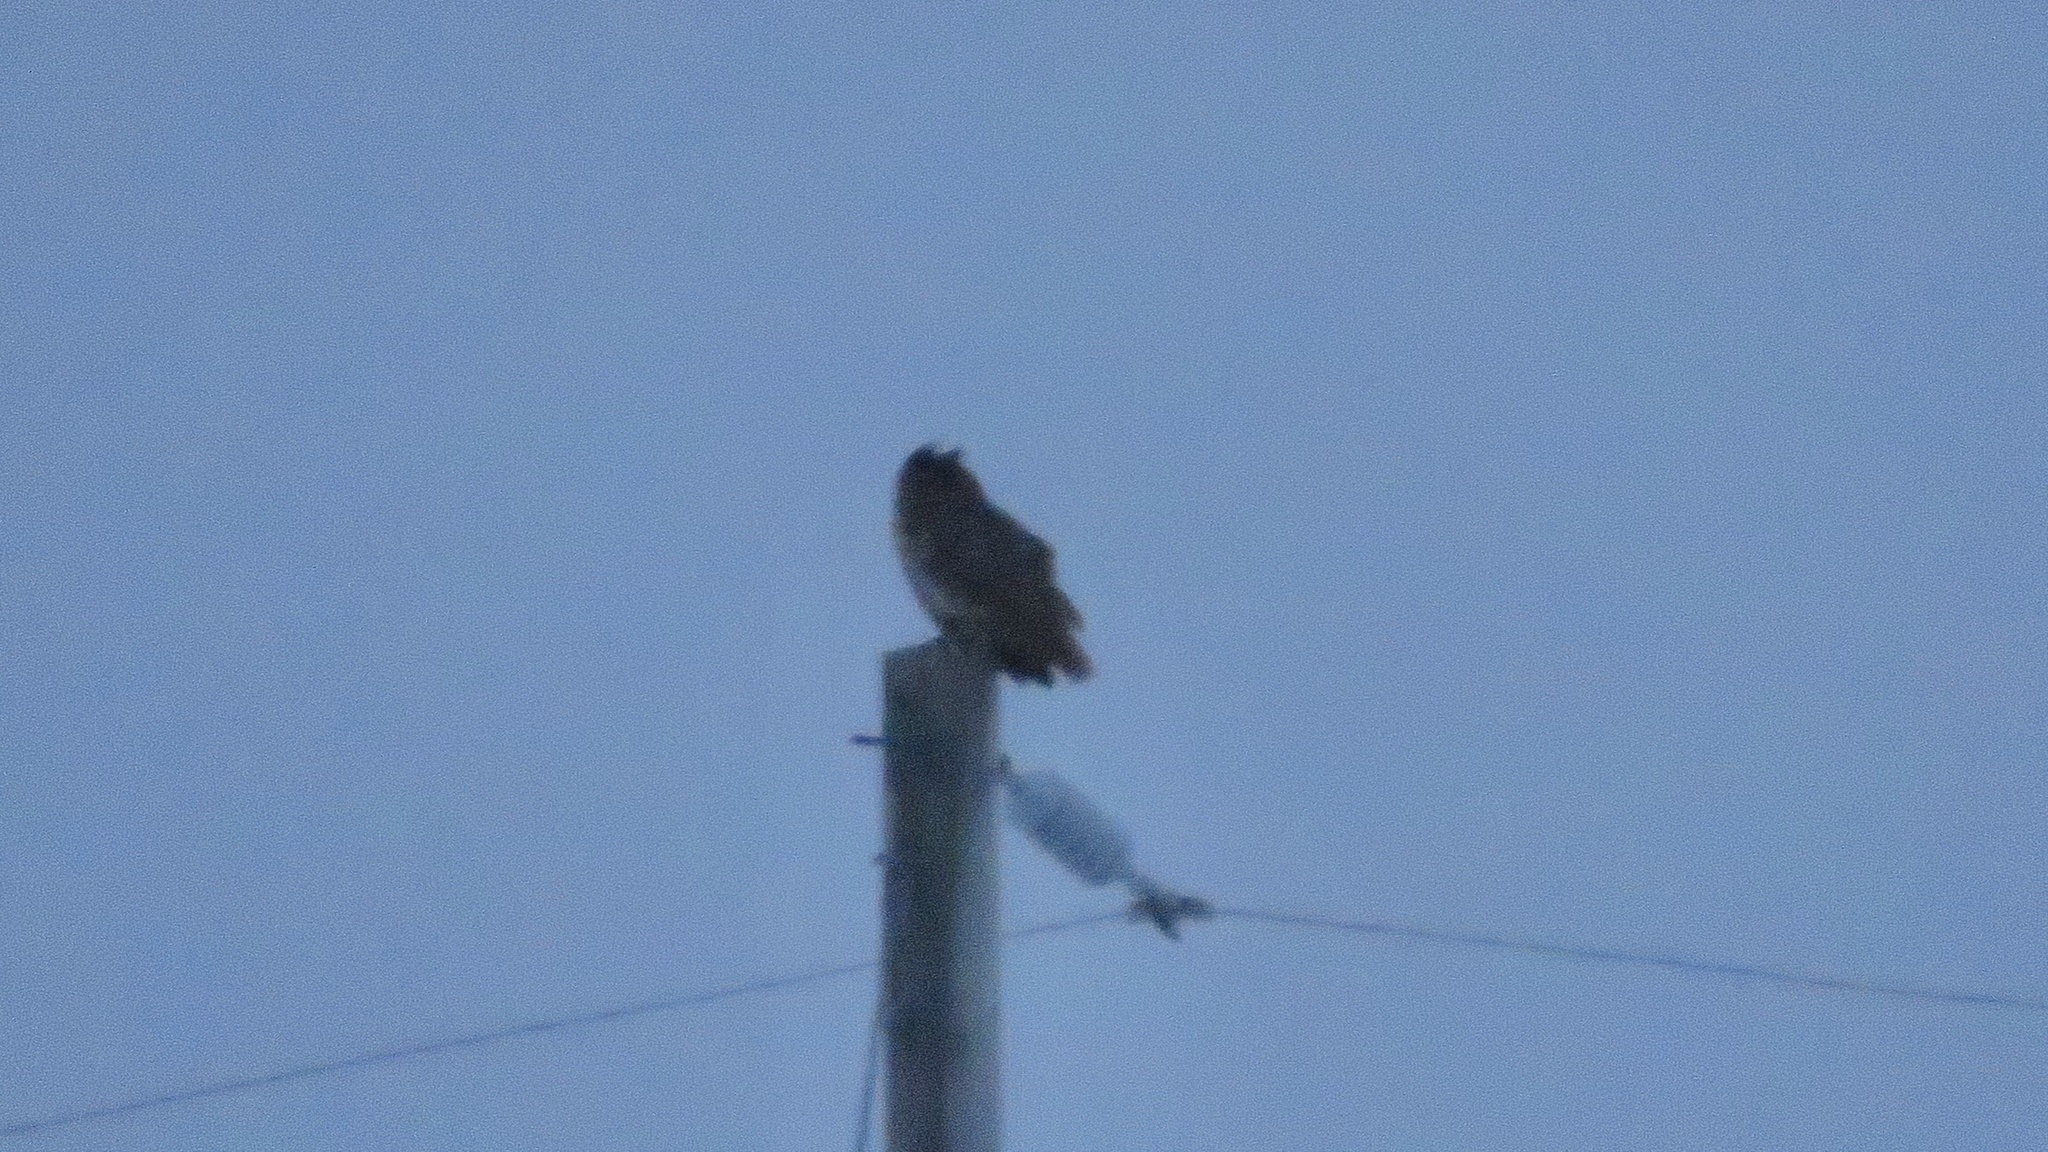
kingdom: Animalia
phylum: Chordata
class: Aves
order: Strigiformes
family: Strigidae
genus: Bubo
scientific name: Bubo virginianus
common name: Great horned owl
